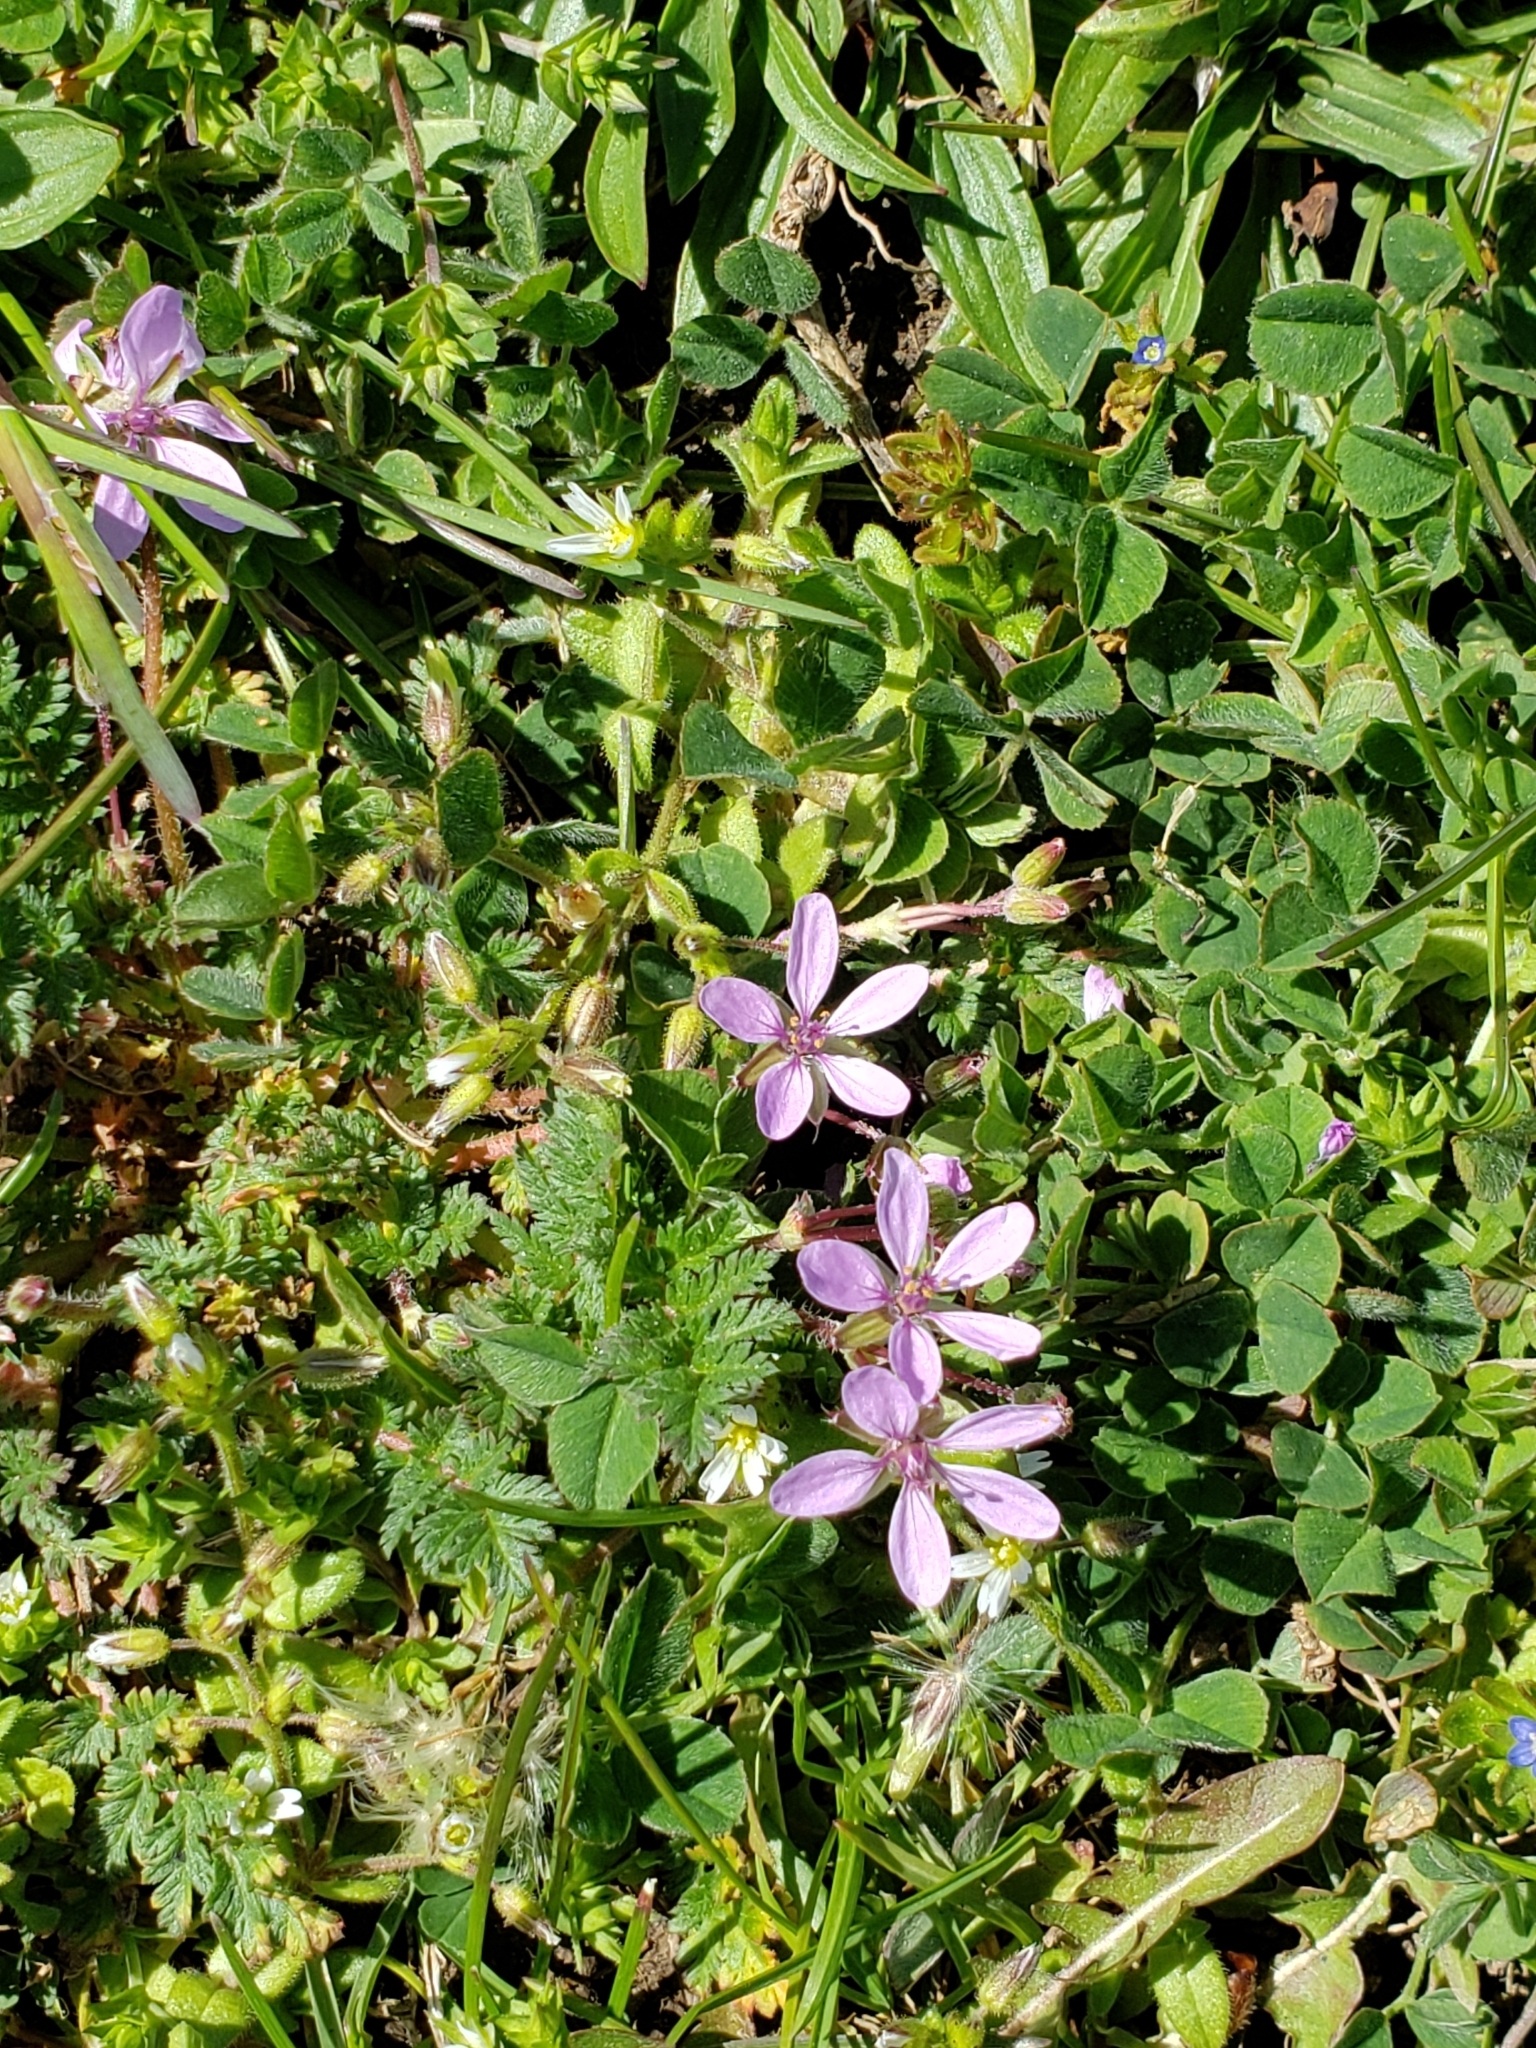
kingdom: Plantae
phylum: Tracheophyta
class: Magnoliopsida
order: Geraniales
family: Geraniaceae
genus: Erodium
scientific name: Erodium cicutarium
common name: Common stork's-bill
